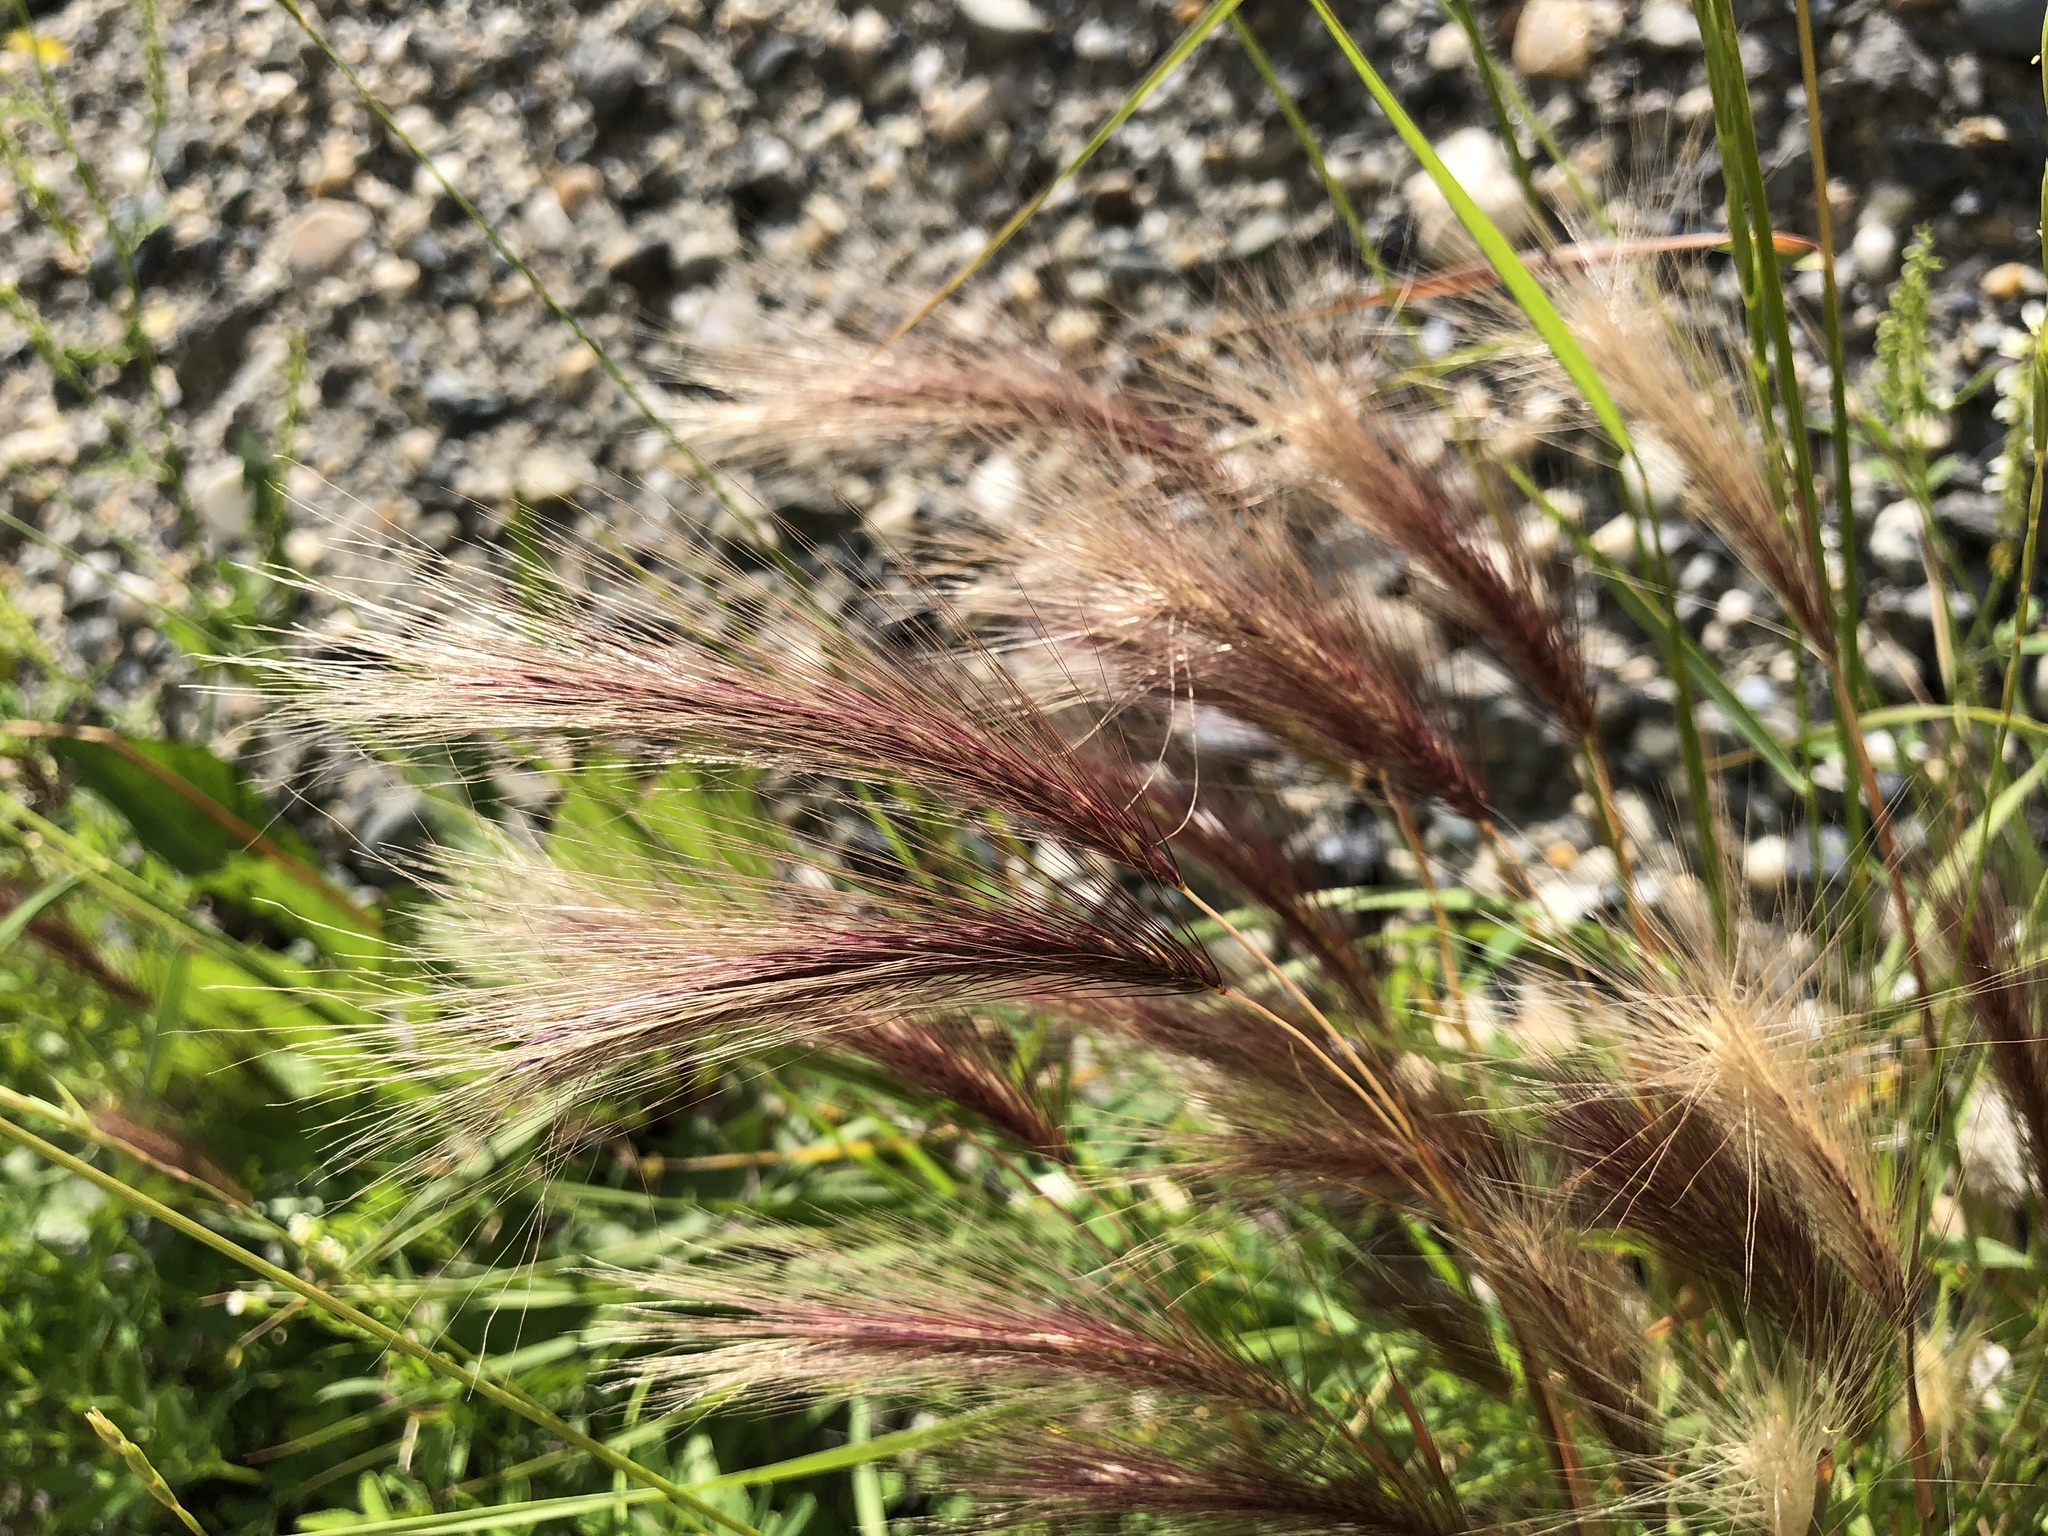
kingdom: Plantae
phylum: Tracheophyta
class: Liliopsida
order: Poales
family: Poaceae
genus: Hordeum
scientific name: Hordeum jubatum
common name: Foxtail barley
